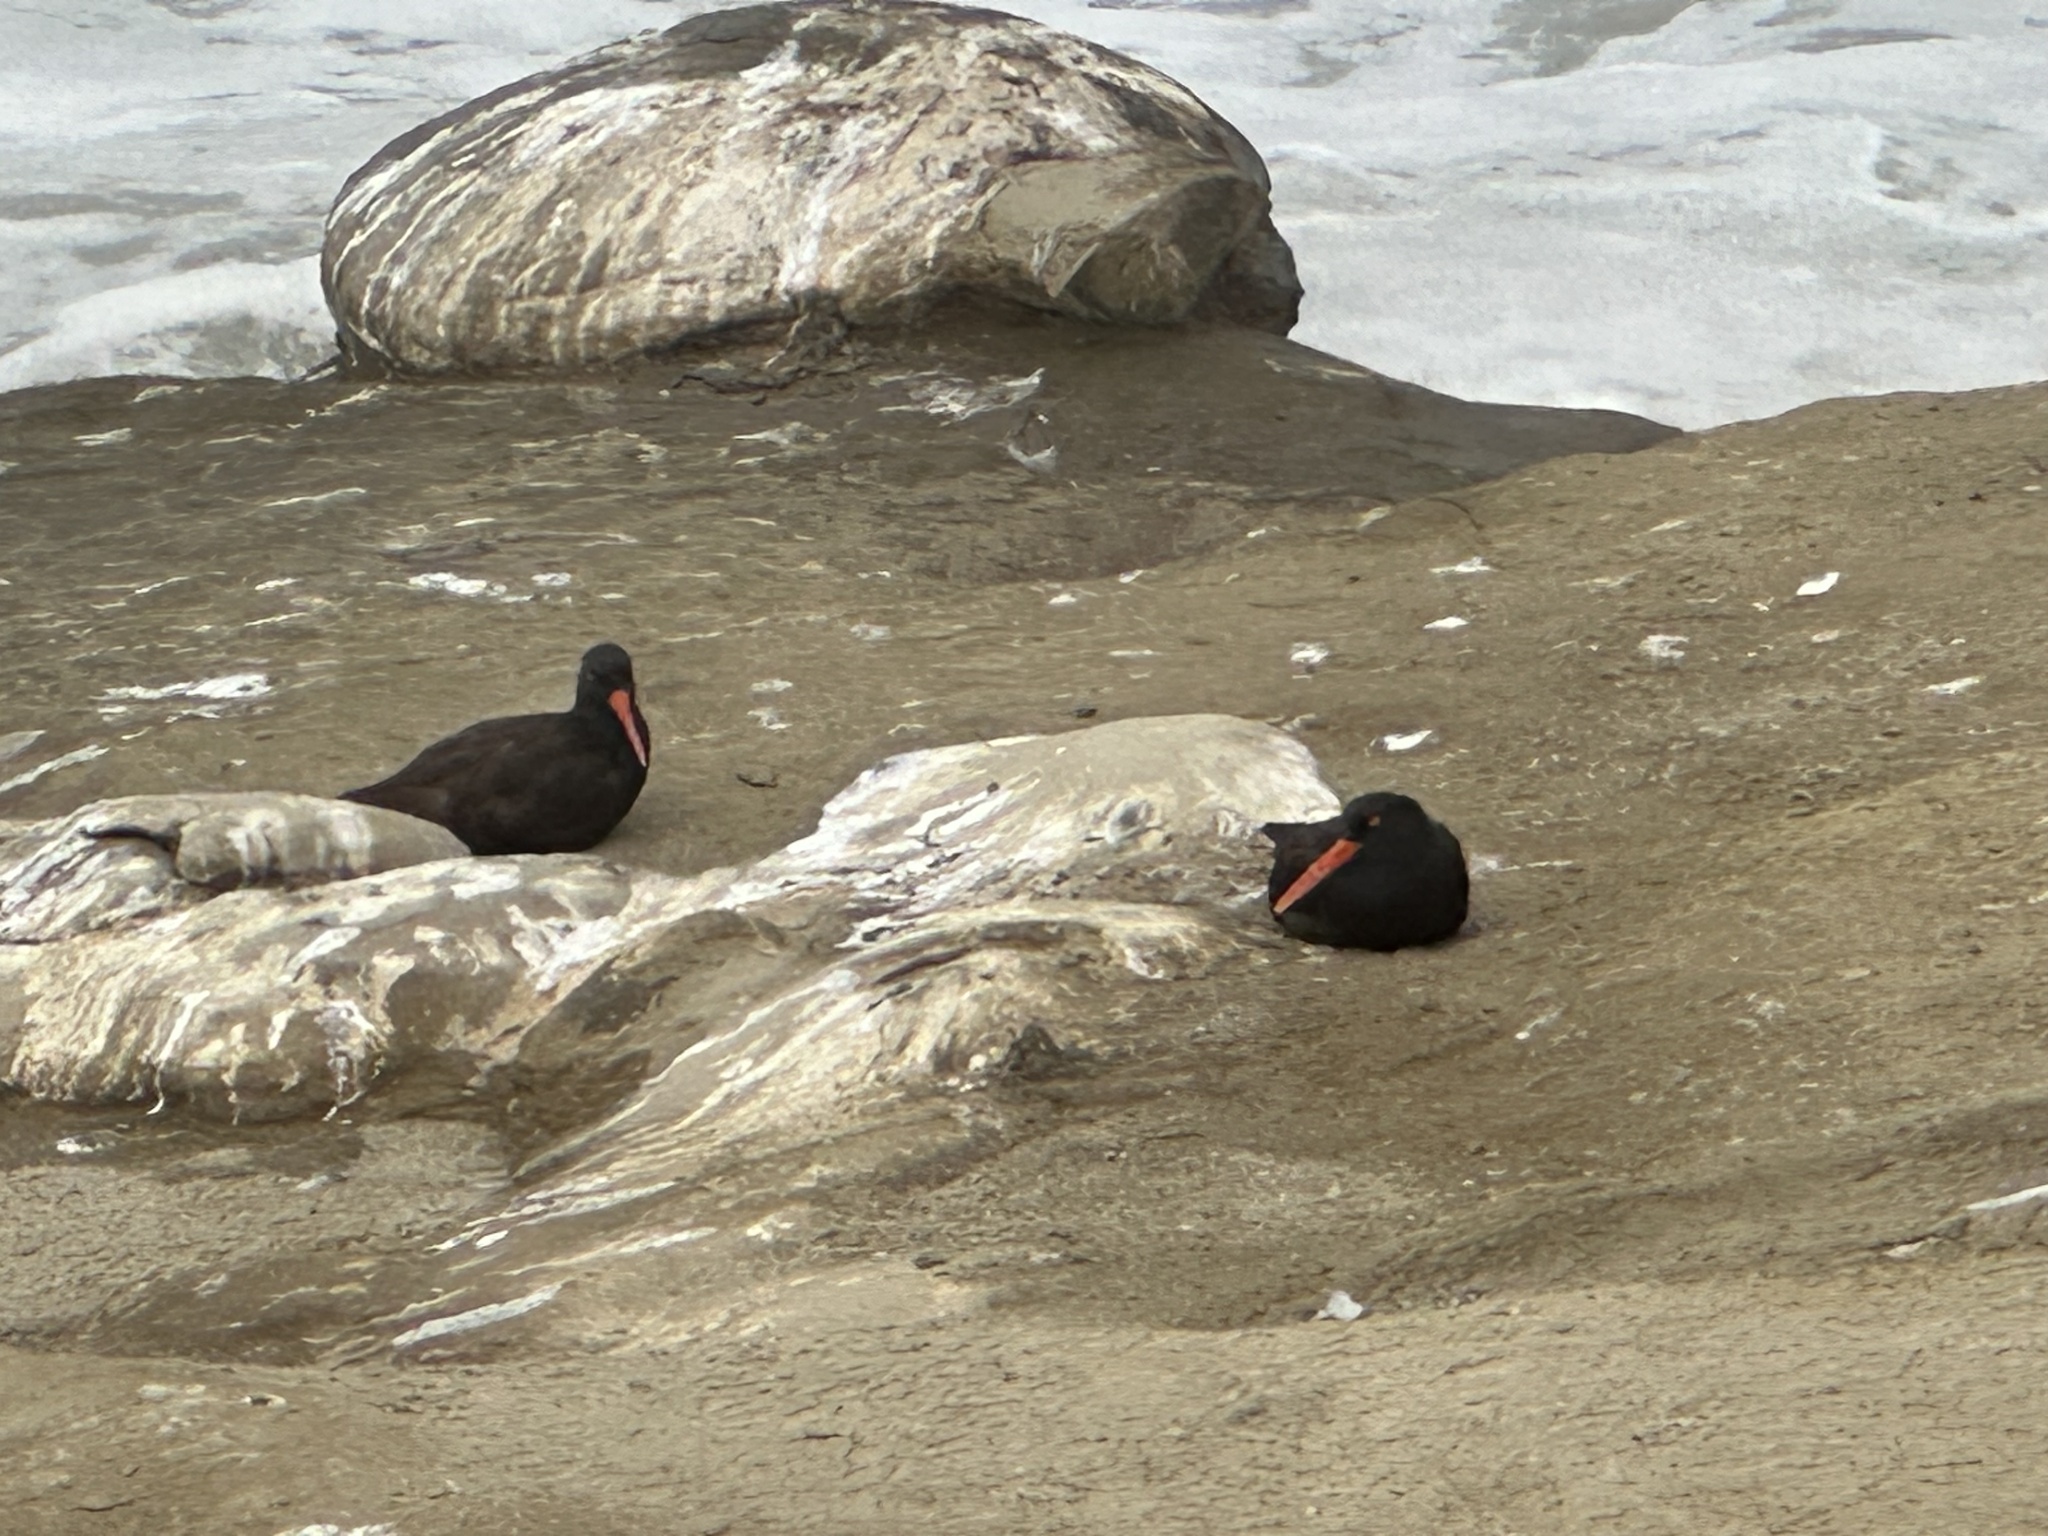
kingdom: Animalia
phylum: Chordata
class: Aves
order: Charadriiformes
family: Haematopodidae
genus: Haematopus
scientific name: Haematopus bachmani
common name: Black oystercatcher
